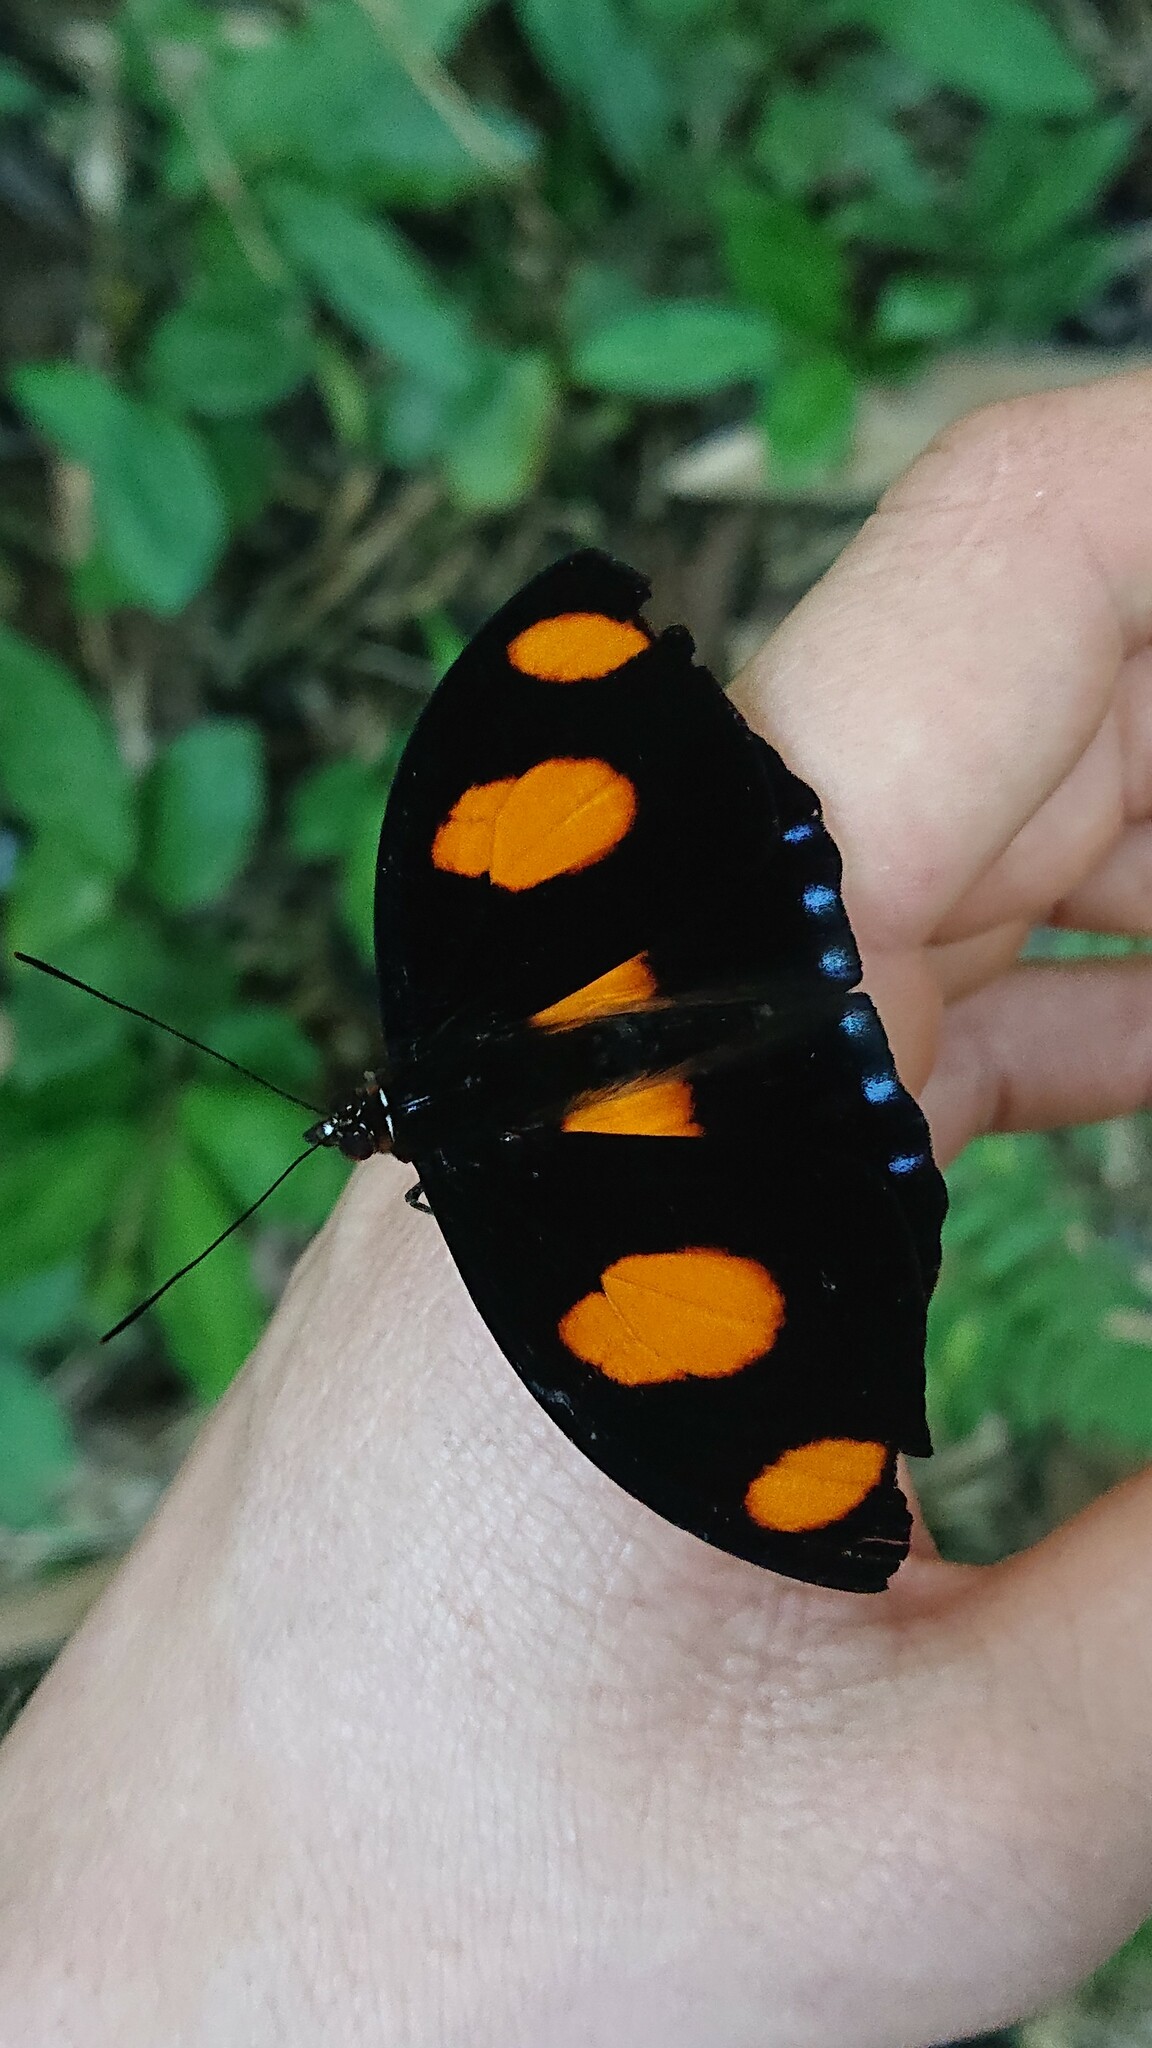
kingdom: Animalia
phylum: Arthropoda
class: Insecta
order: Lepidoptera
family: Nymphalidae
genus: Catonephele
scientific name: Catonephele numilia
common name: Blue-frosted banner
